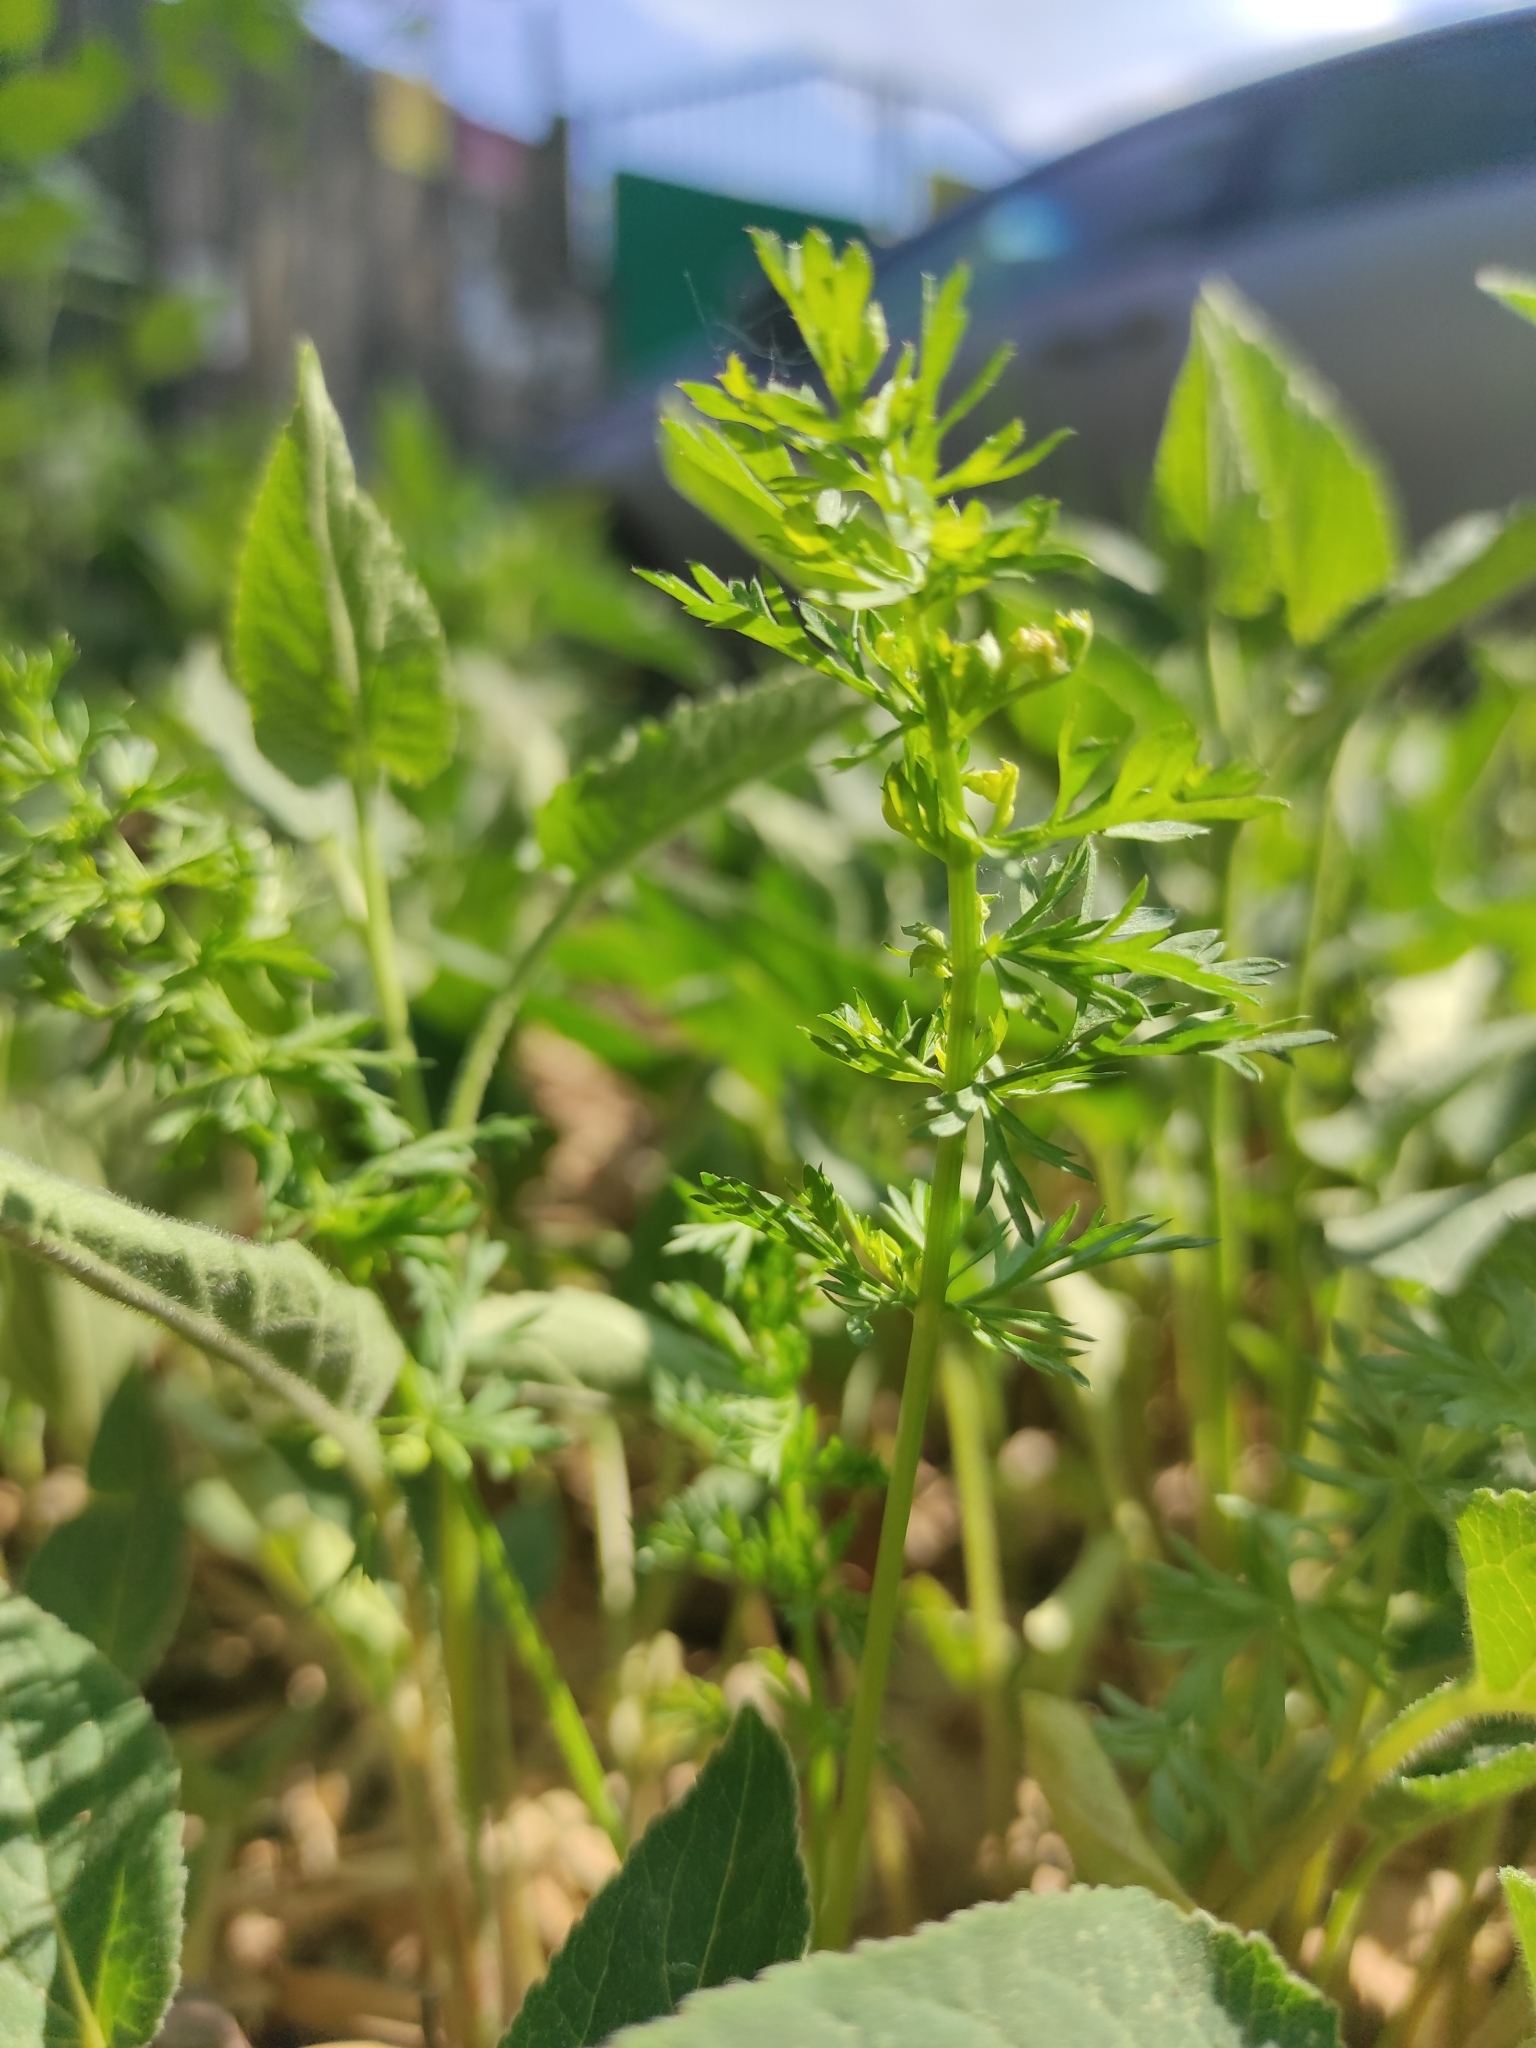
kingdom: Plantae
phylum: Tracheophyta
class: Magnoliopsida
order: Apiales
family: Apiaceae
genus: Carum
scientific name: Carum carvi
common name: Caraway
